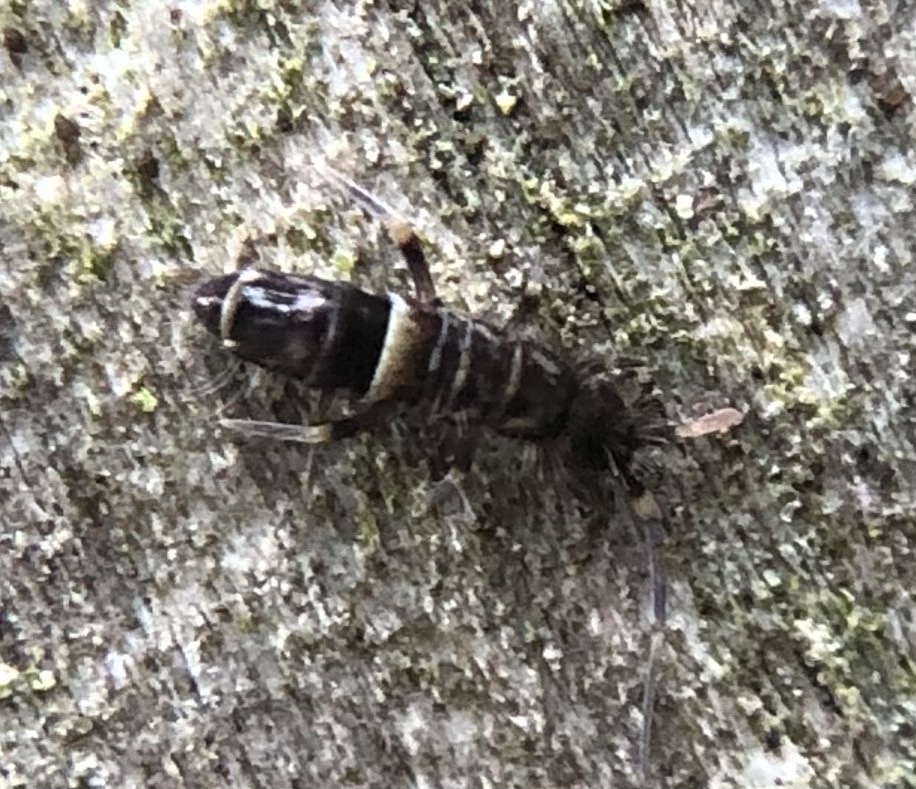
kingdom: Animalia
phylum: Arthropoda
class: Collembola
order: Entomobryomorpha
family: Orchesellidae
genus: Orchesella
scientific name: Orchesella cincta
